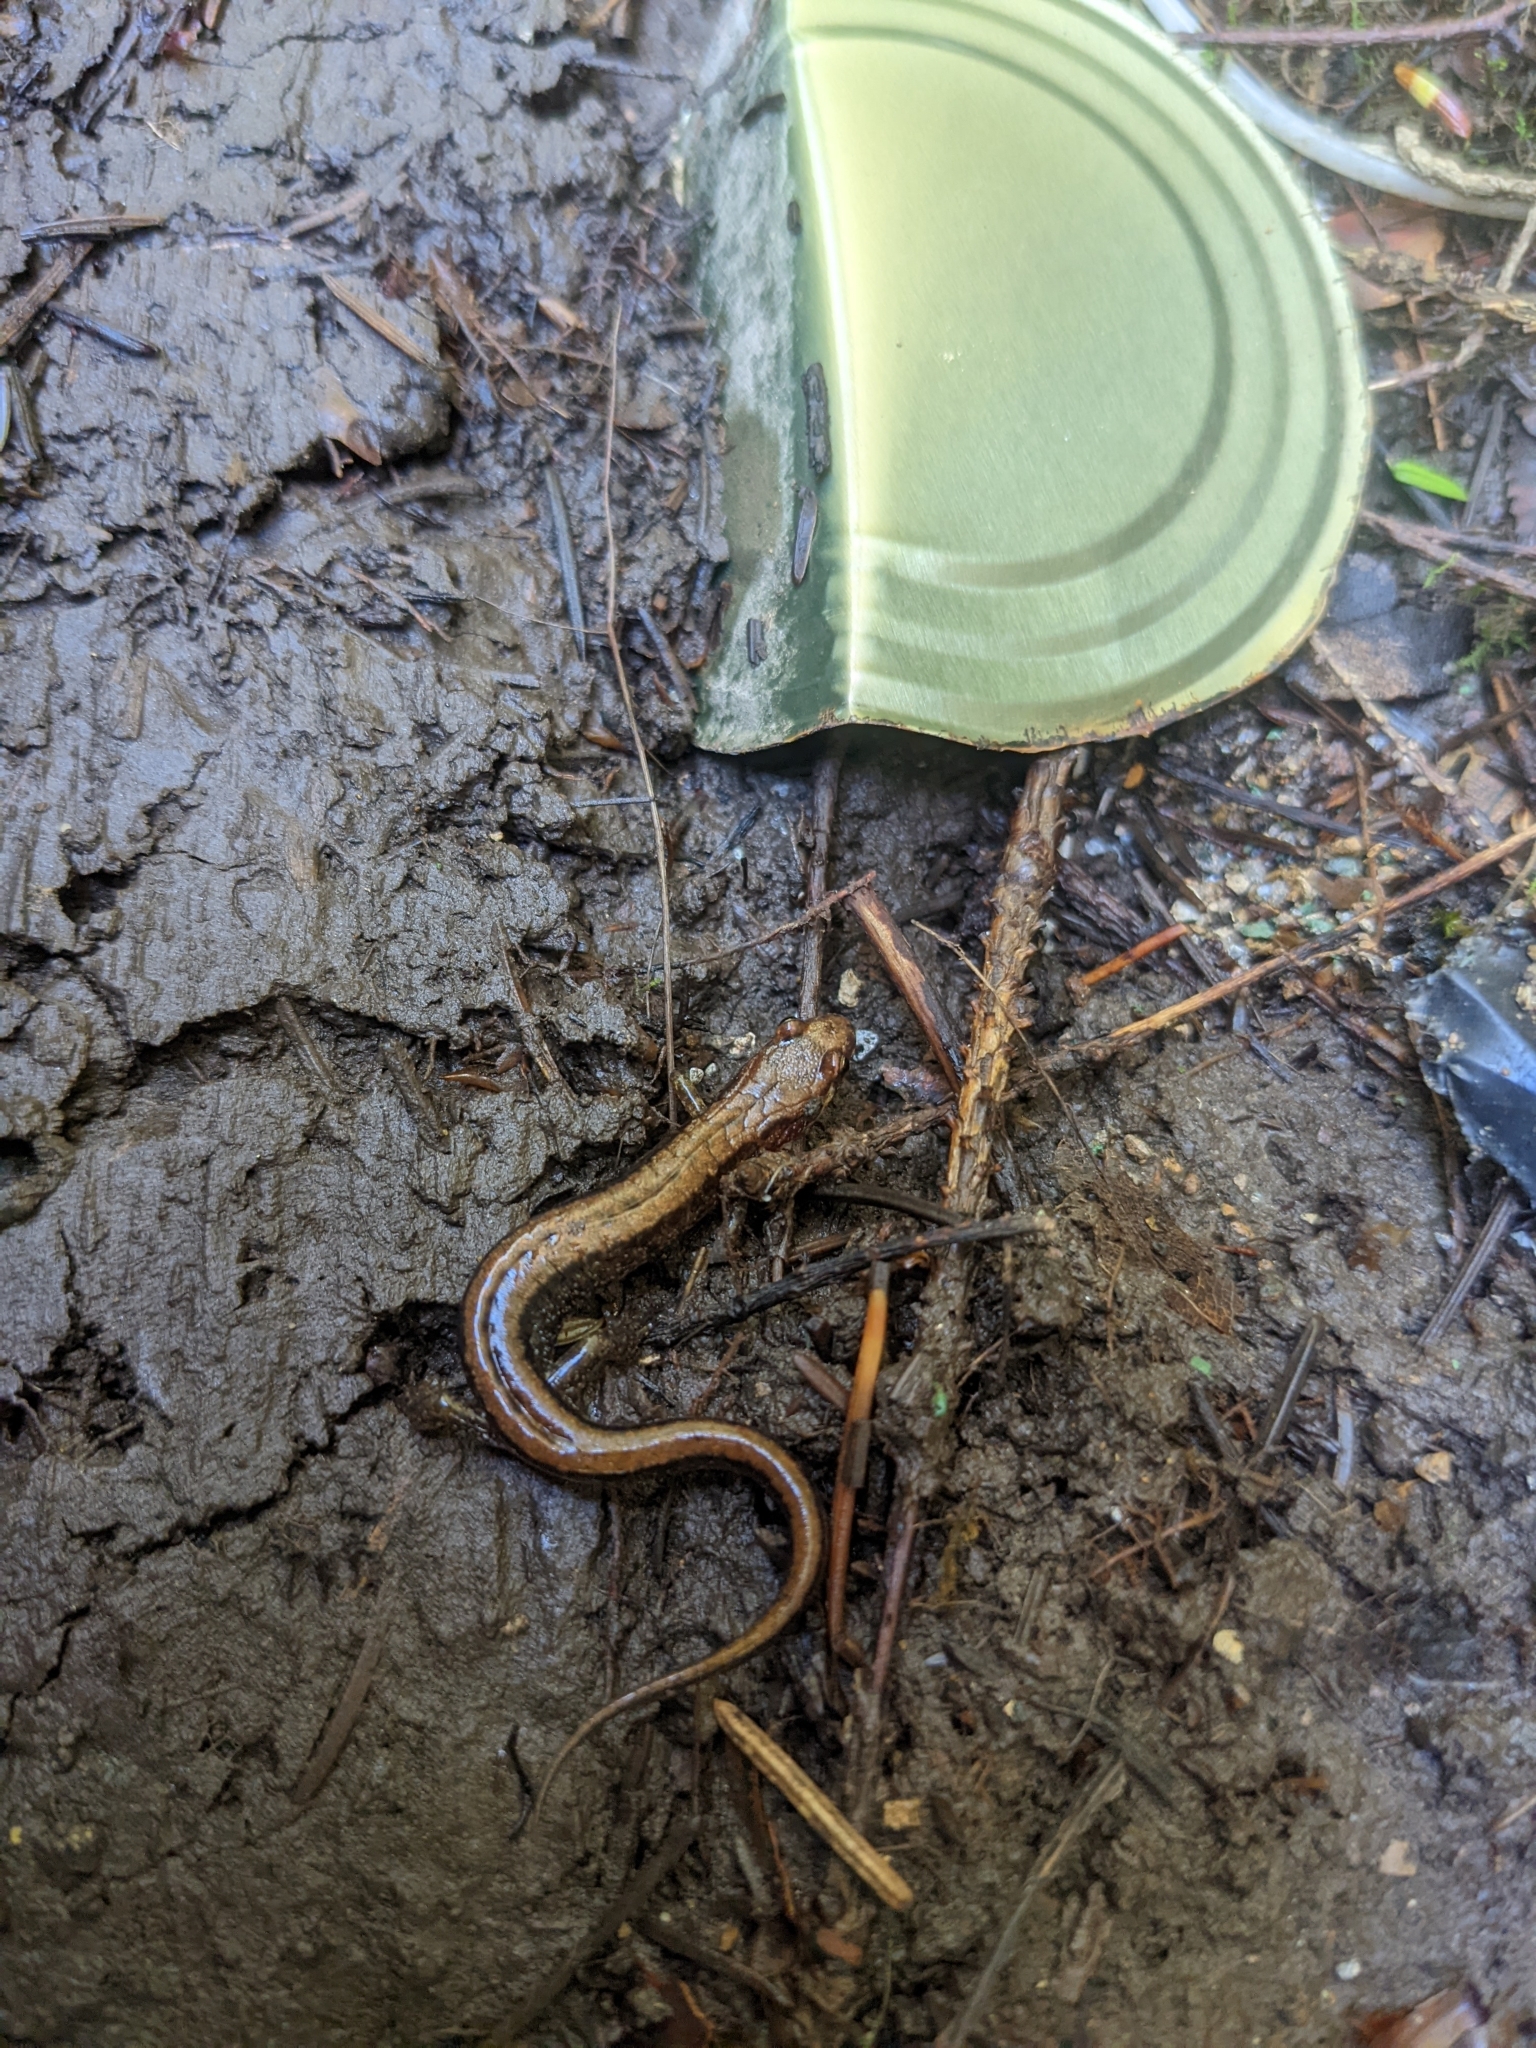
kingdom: Animalia
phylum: Chordata
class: Amphibia
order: Caudata
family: Plethodontidae
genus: Desmognathus
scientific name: Desmognathus ochrophaeus
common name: Allegheny mountain dusky salamander
